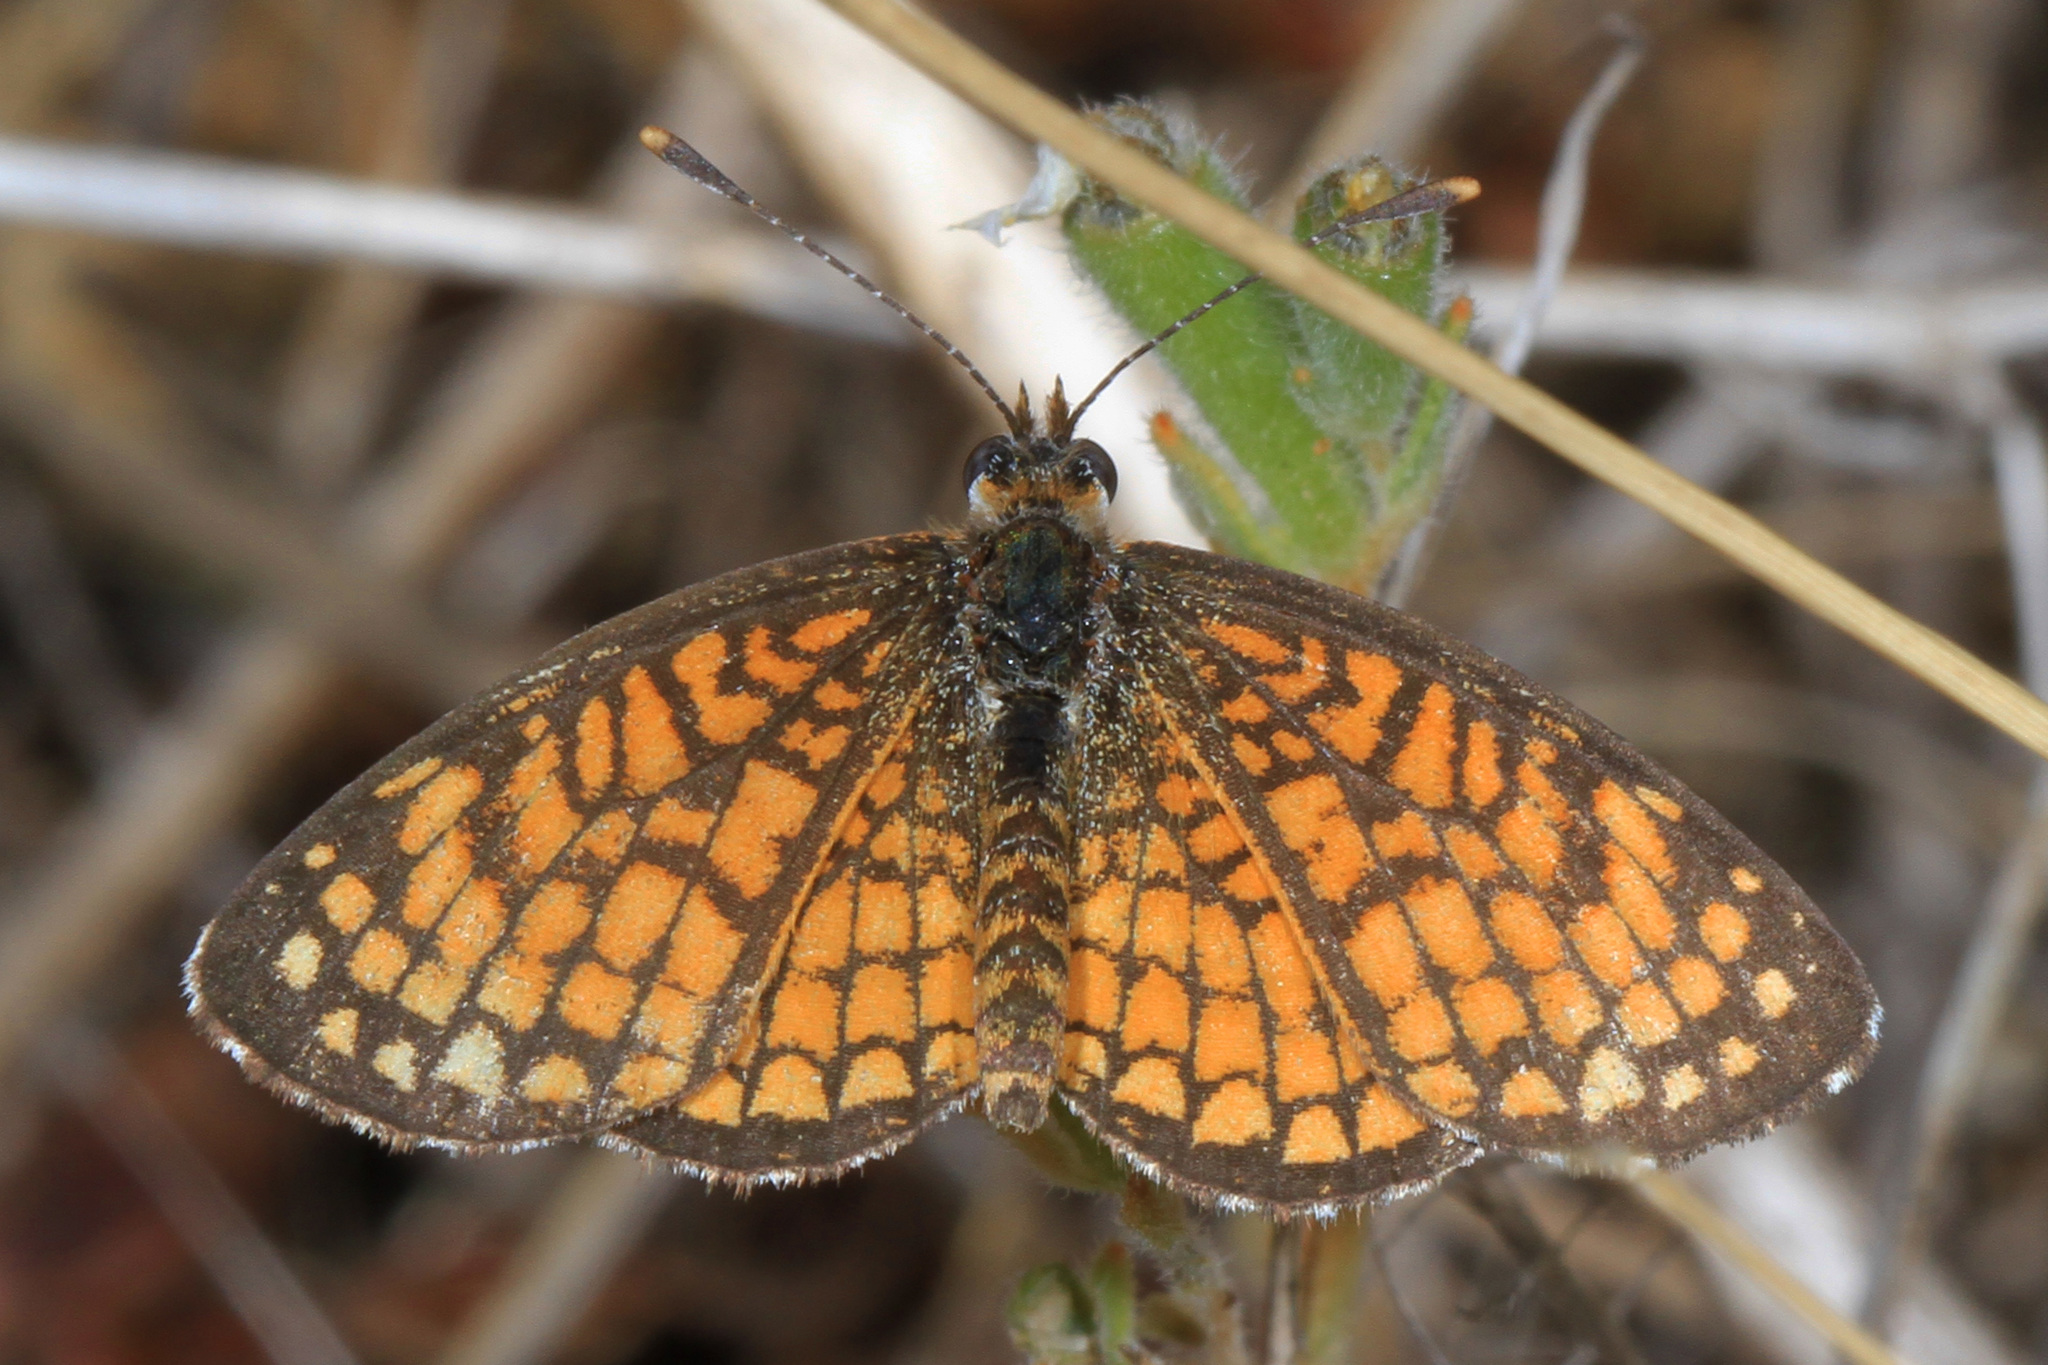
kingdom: Animalia
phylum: Arthropoda
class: Insecta
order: Lepidoptera
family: Nymphalidae
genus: Texola
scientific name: Texola
